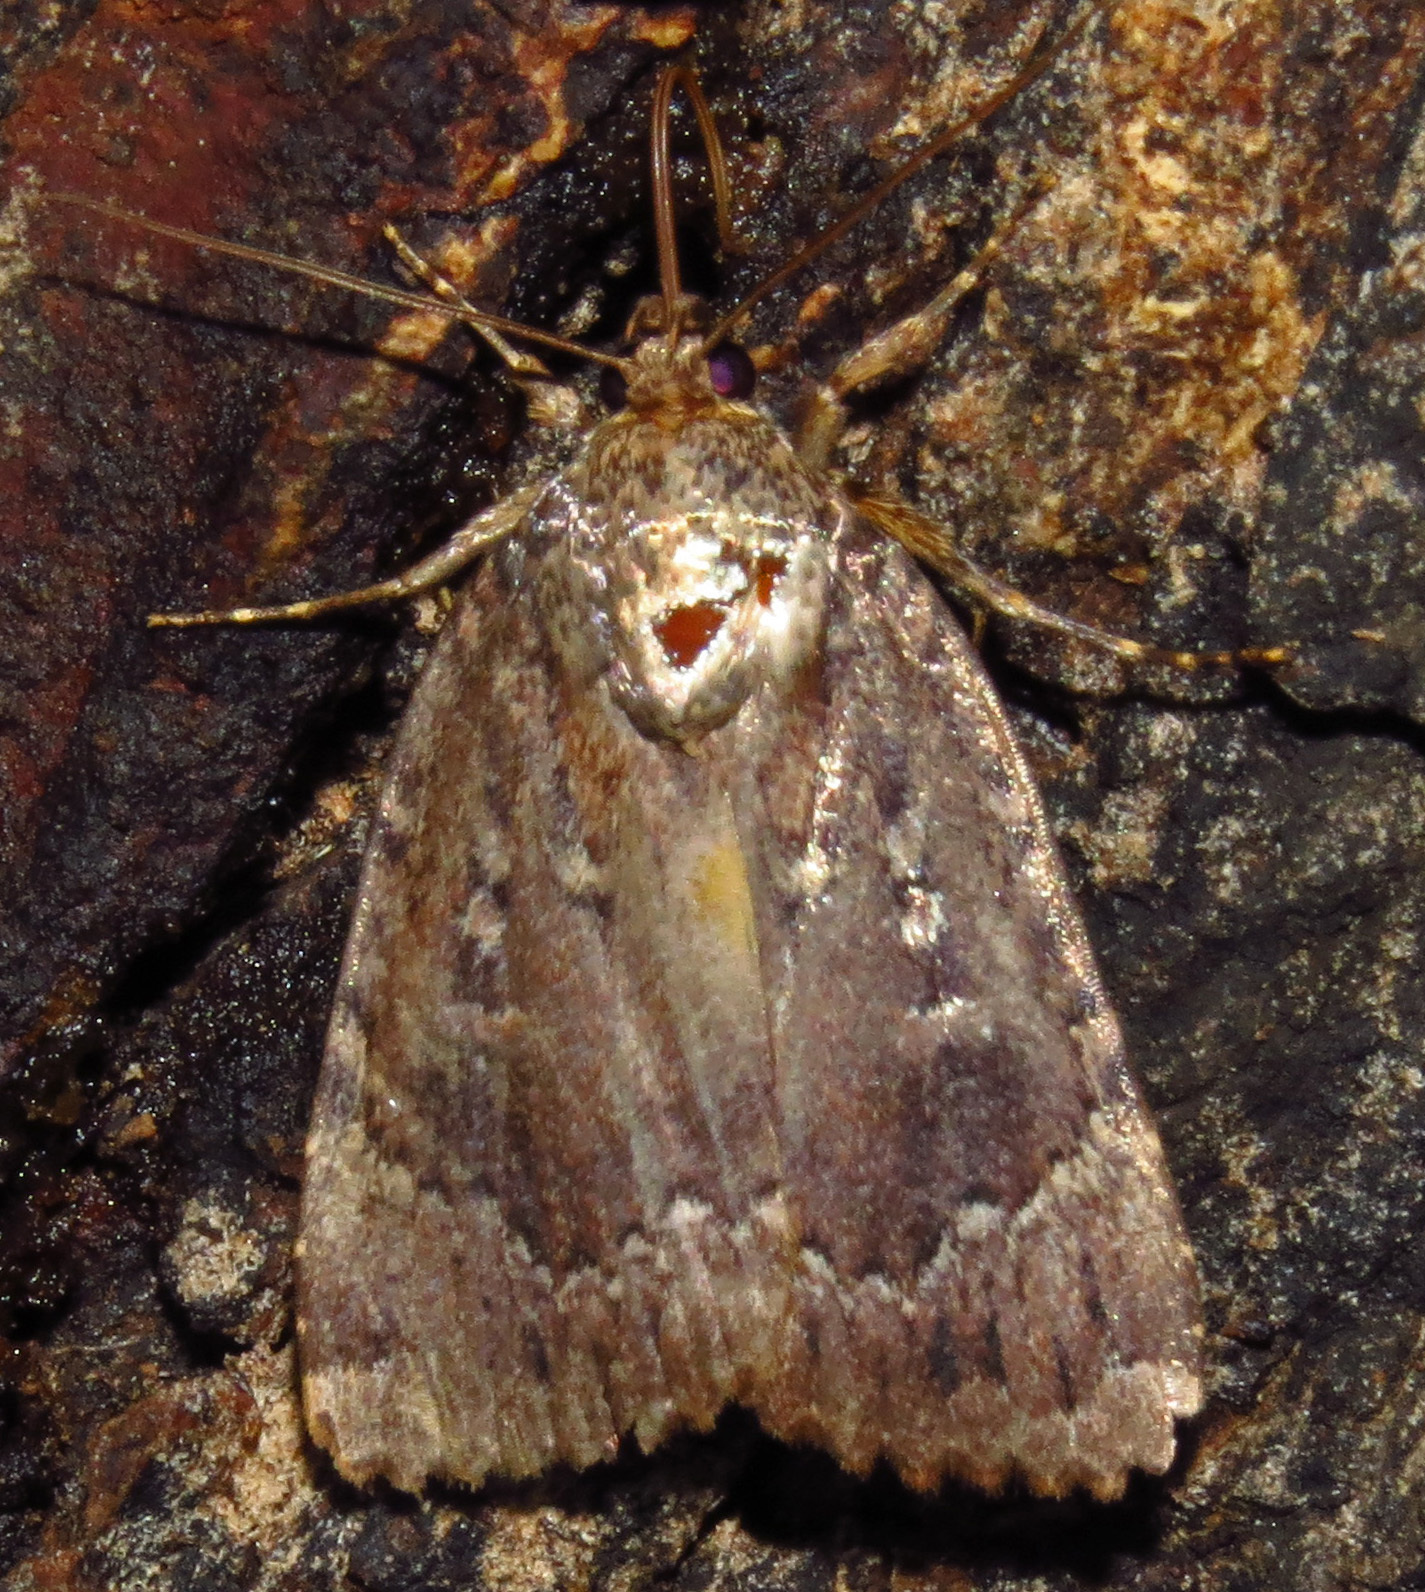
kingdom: Animalia
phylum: Arthropoda
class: Insecta
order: Lepidoptera
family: Noctuidae
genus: Amphipyra
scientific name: Amphipyra pyramidoides
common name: American copper underwing
